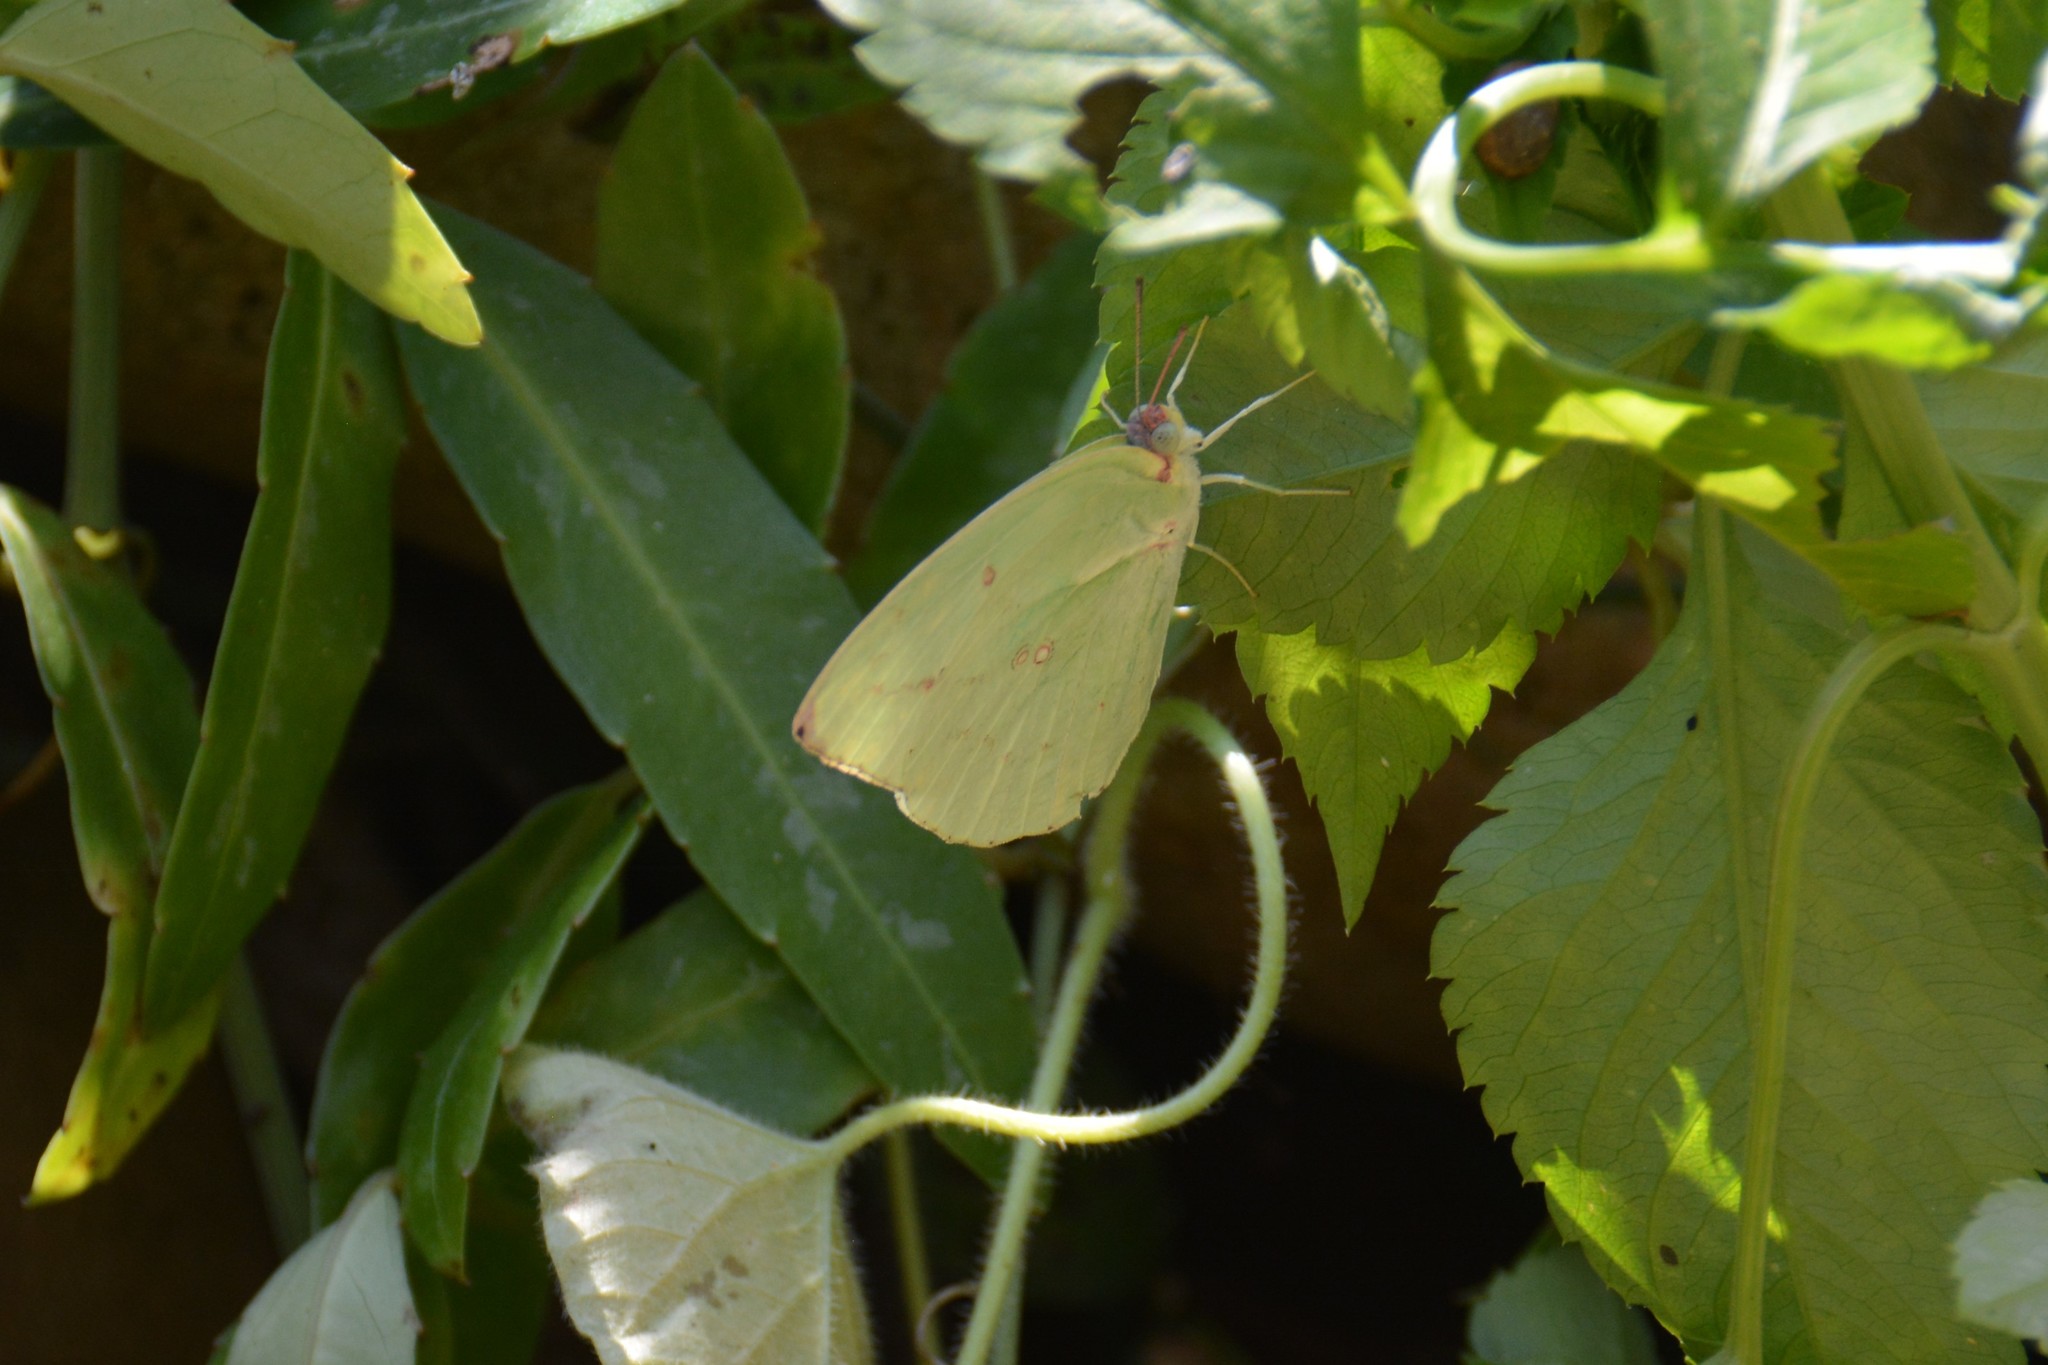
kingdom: Animalia
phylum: Arthropoda
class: Insecta
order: Lepidoptera
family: Pieridae
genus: Catopsilia
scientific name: Catopsilia pomona
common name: Common emigrant
